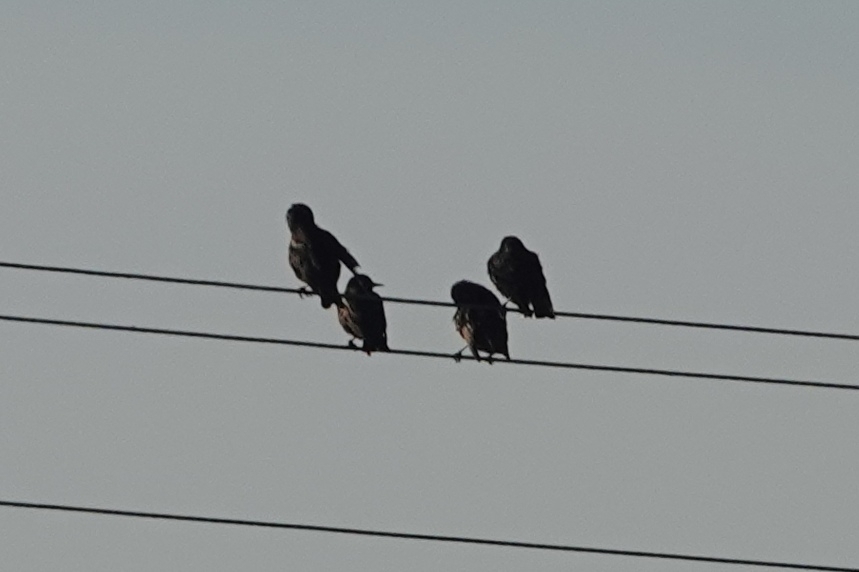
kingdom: Animalia
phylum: Chordata
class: Aves
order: Passeriformes
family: Sturnidae
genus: Sturnus
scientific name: Sturnus vulgaris
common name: Common starling
